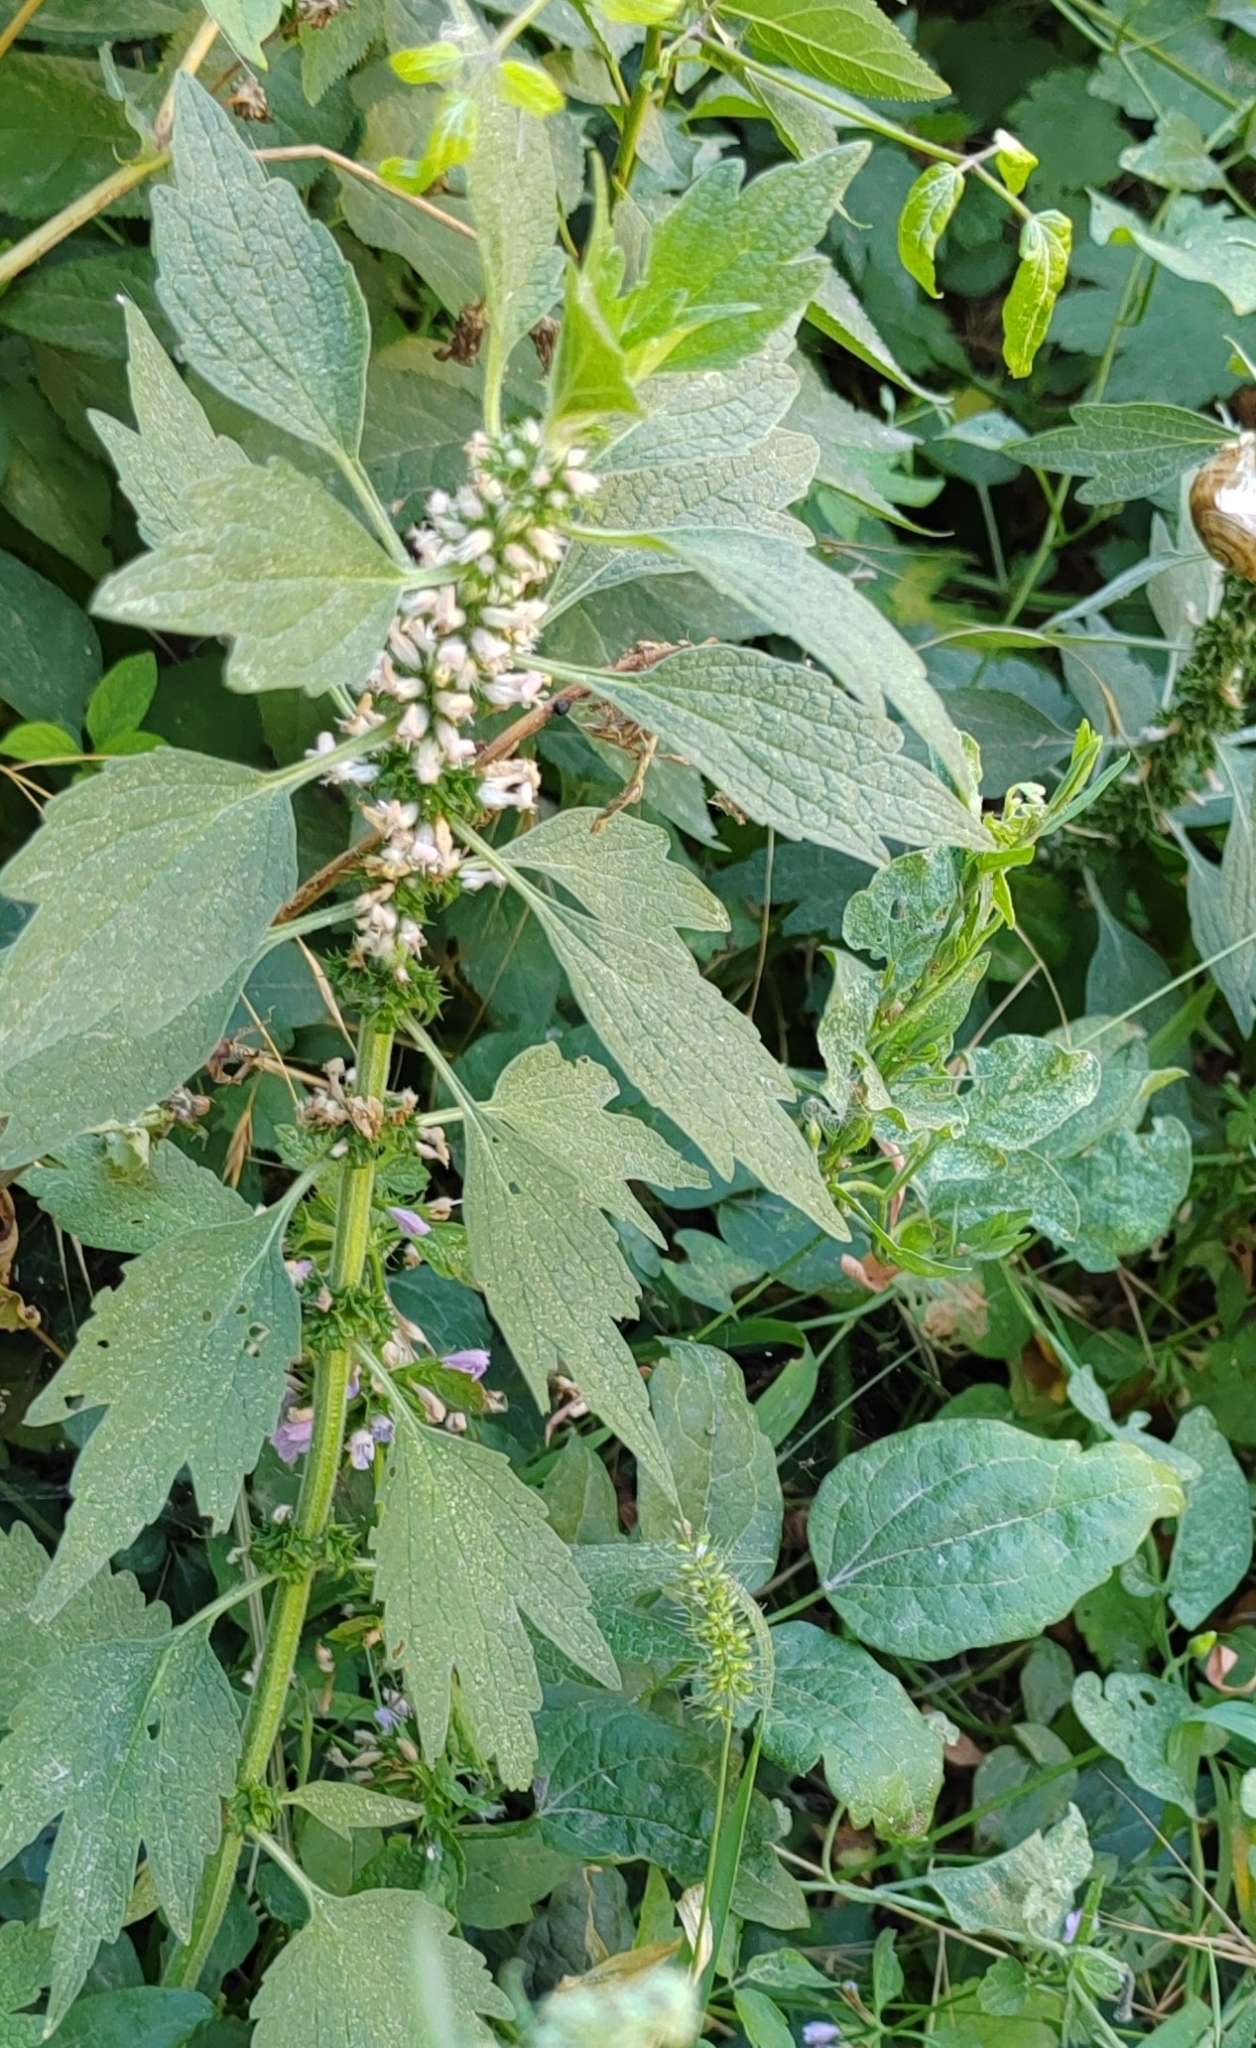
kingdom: Plantae
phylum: Tracheophyta
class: Magnoliopsida
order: Lamiales
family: Lamiaceae
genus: Leonurus
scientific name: Leonurus quinquelobatus
